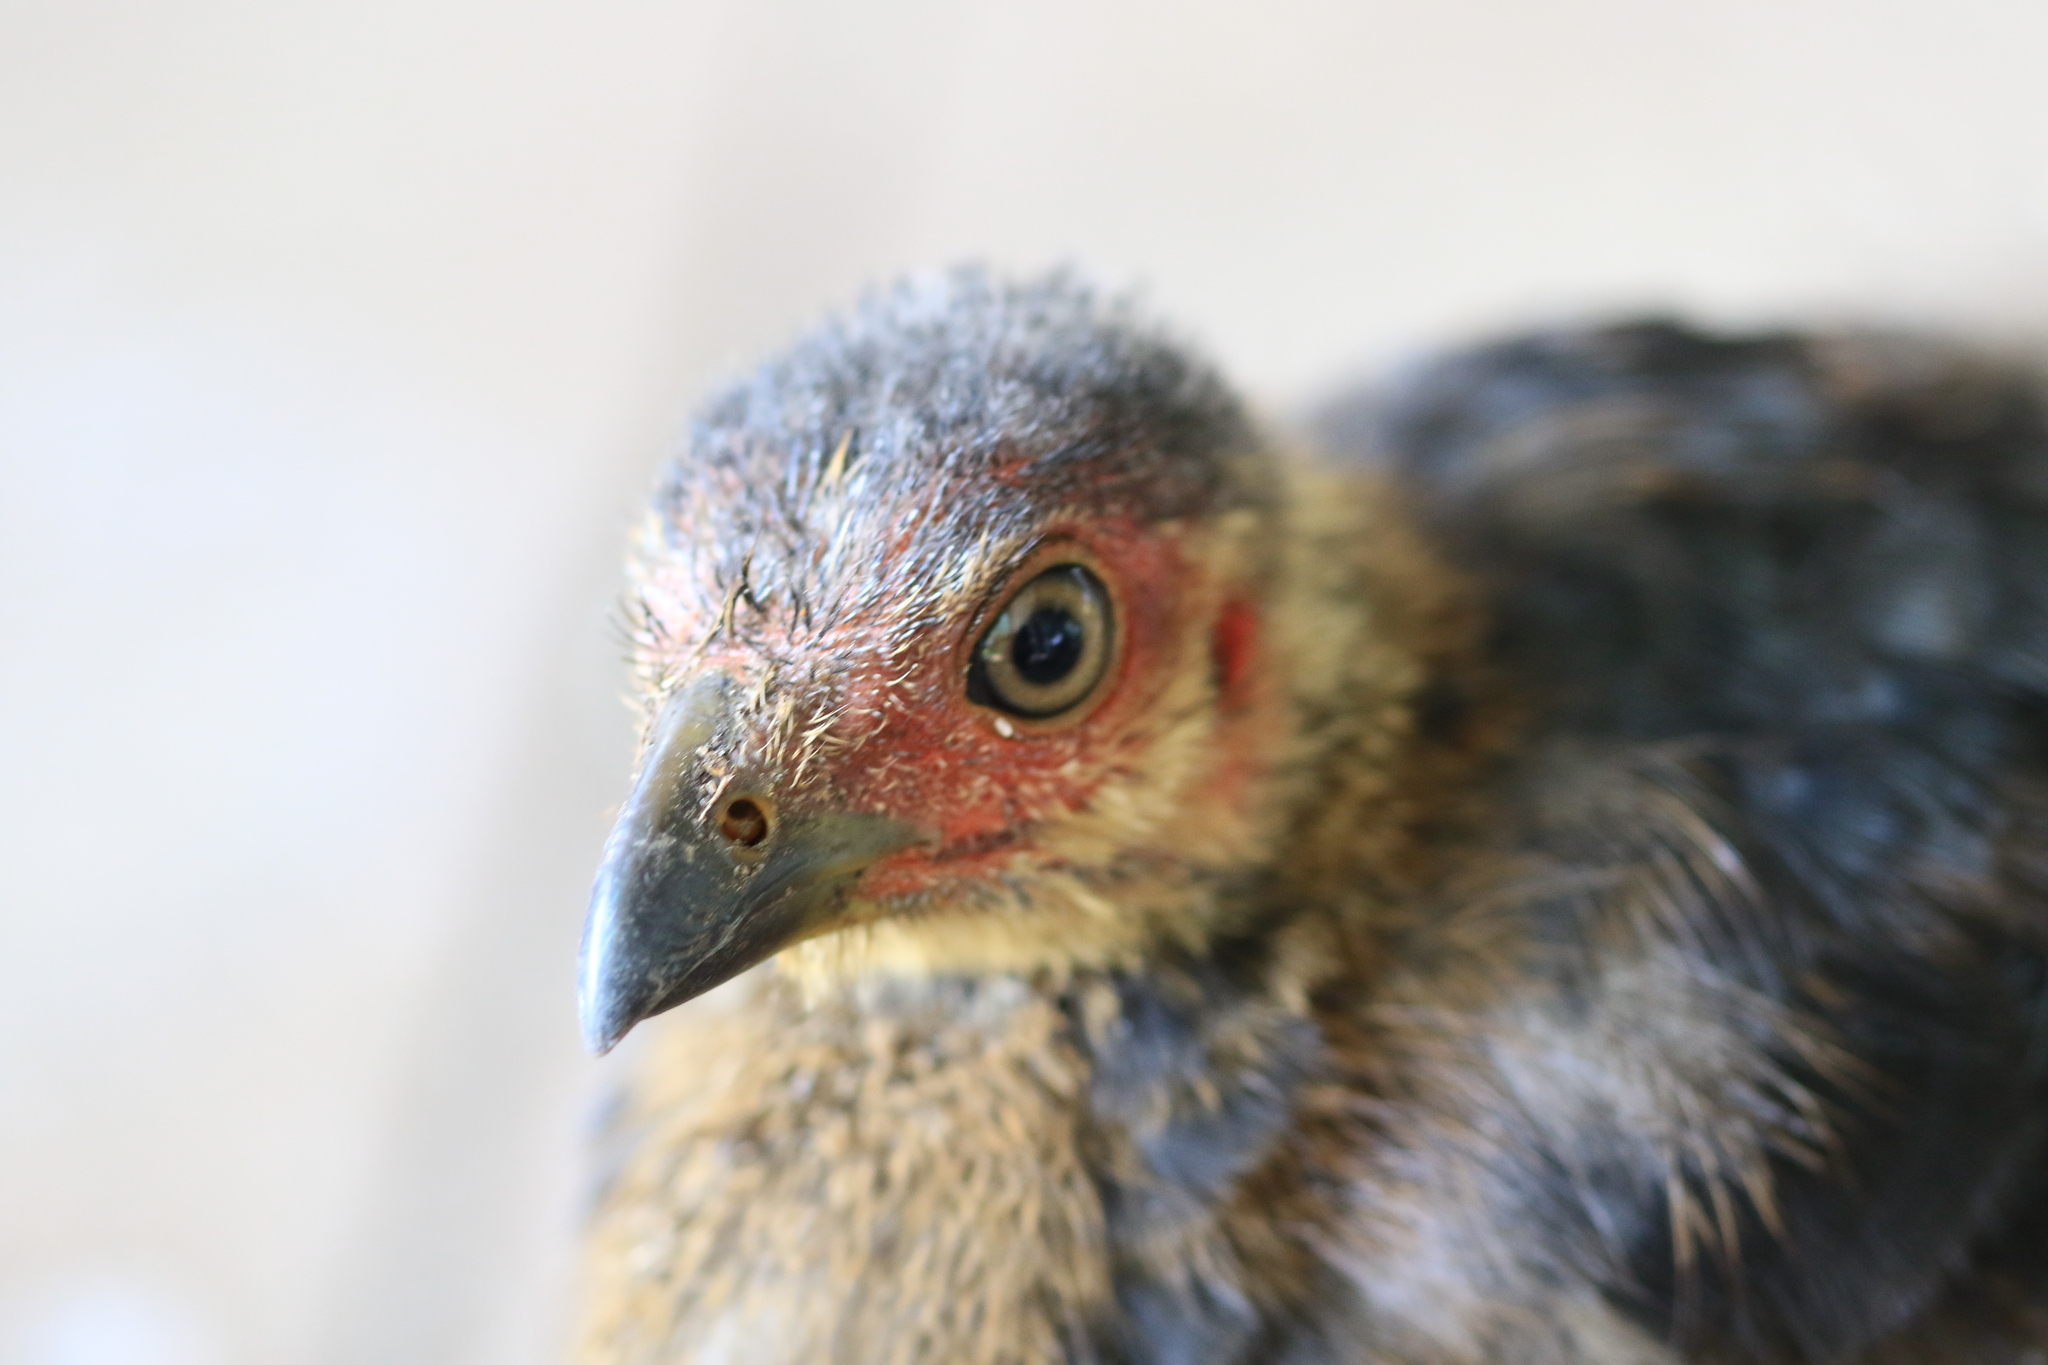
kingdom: Animalia
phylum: Chordata
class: Aves
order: Galliformes
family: Megapodiidae
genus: Alectura
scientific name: Alectura lathami
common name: Australian brushturkey
